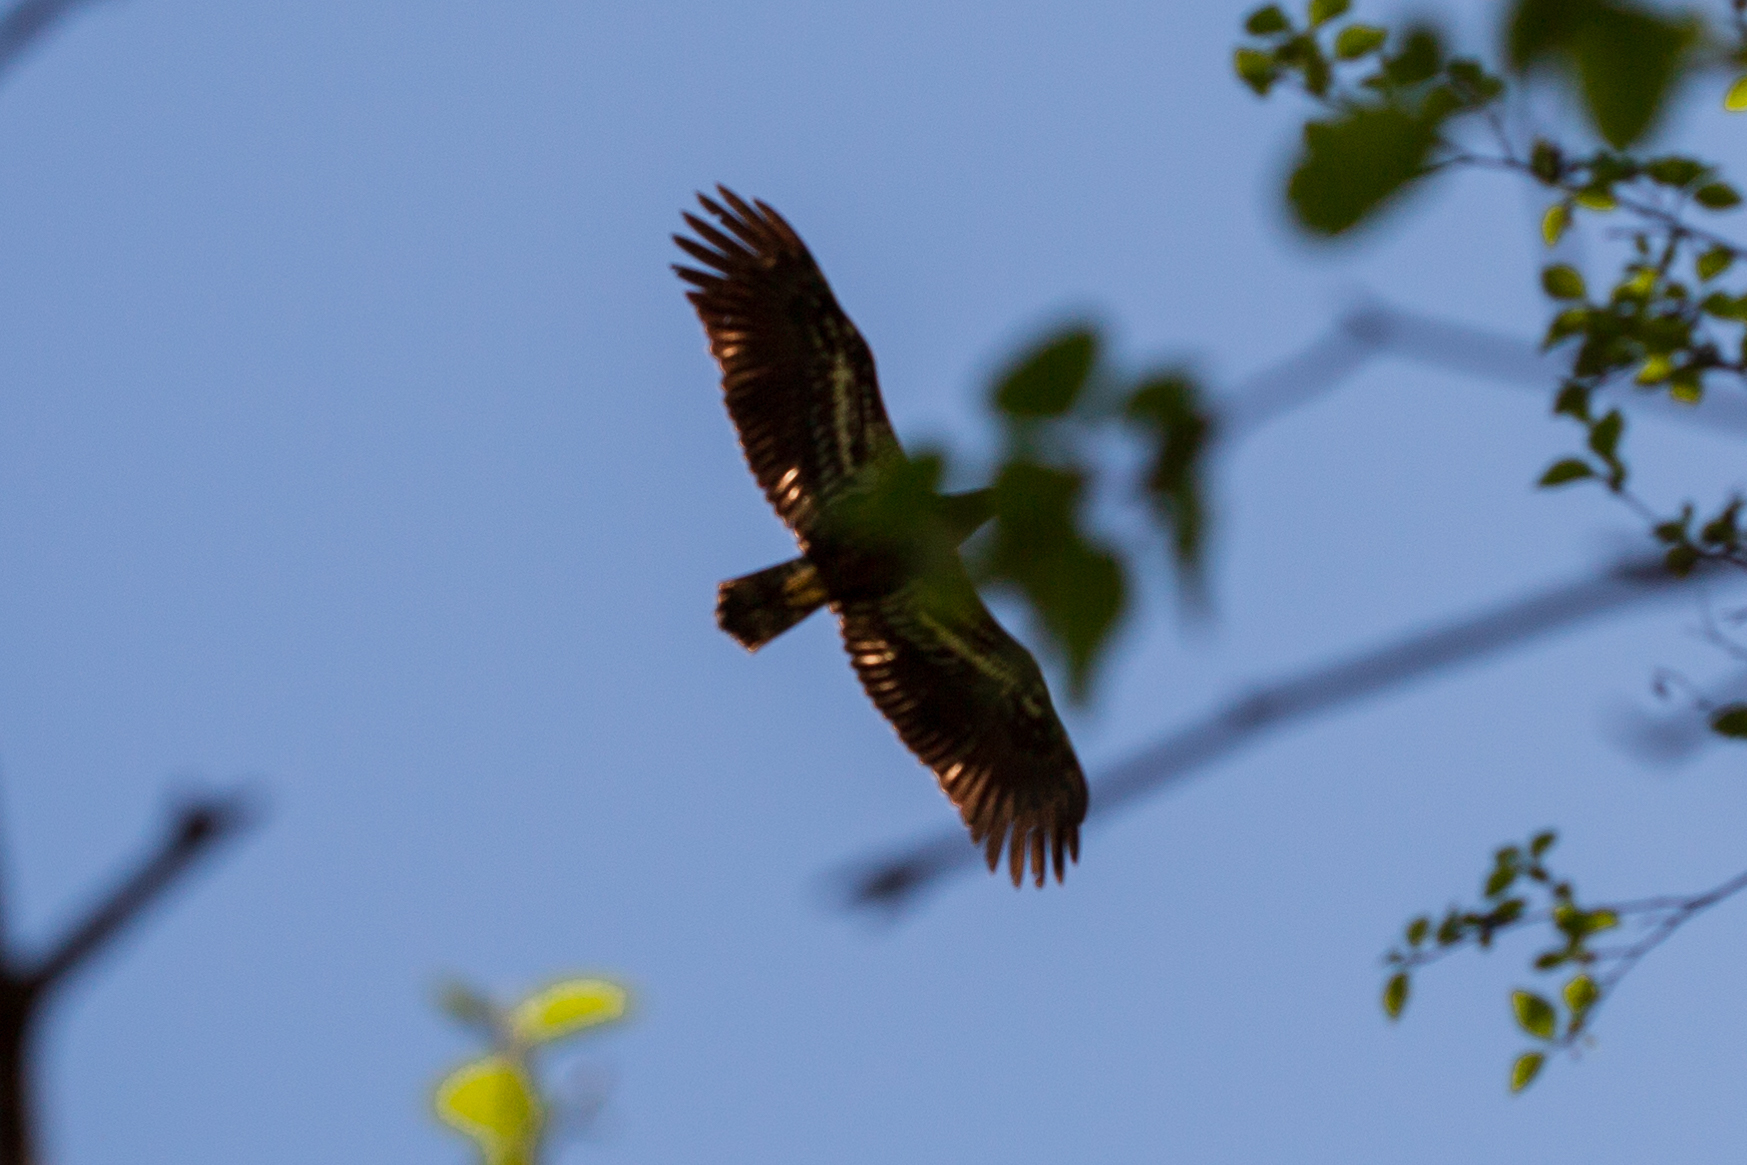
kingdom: Animalia
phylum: Chordata
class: Aves
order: Accipitriformes
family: Accipitridae
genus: Haliaeetus
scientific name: Haliaeetus leucocephalus
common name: Bald eagle
